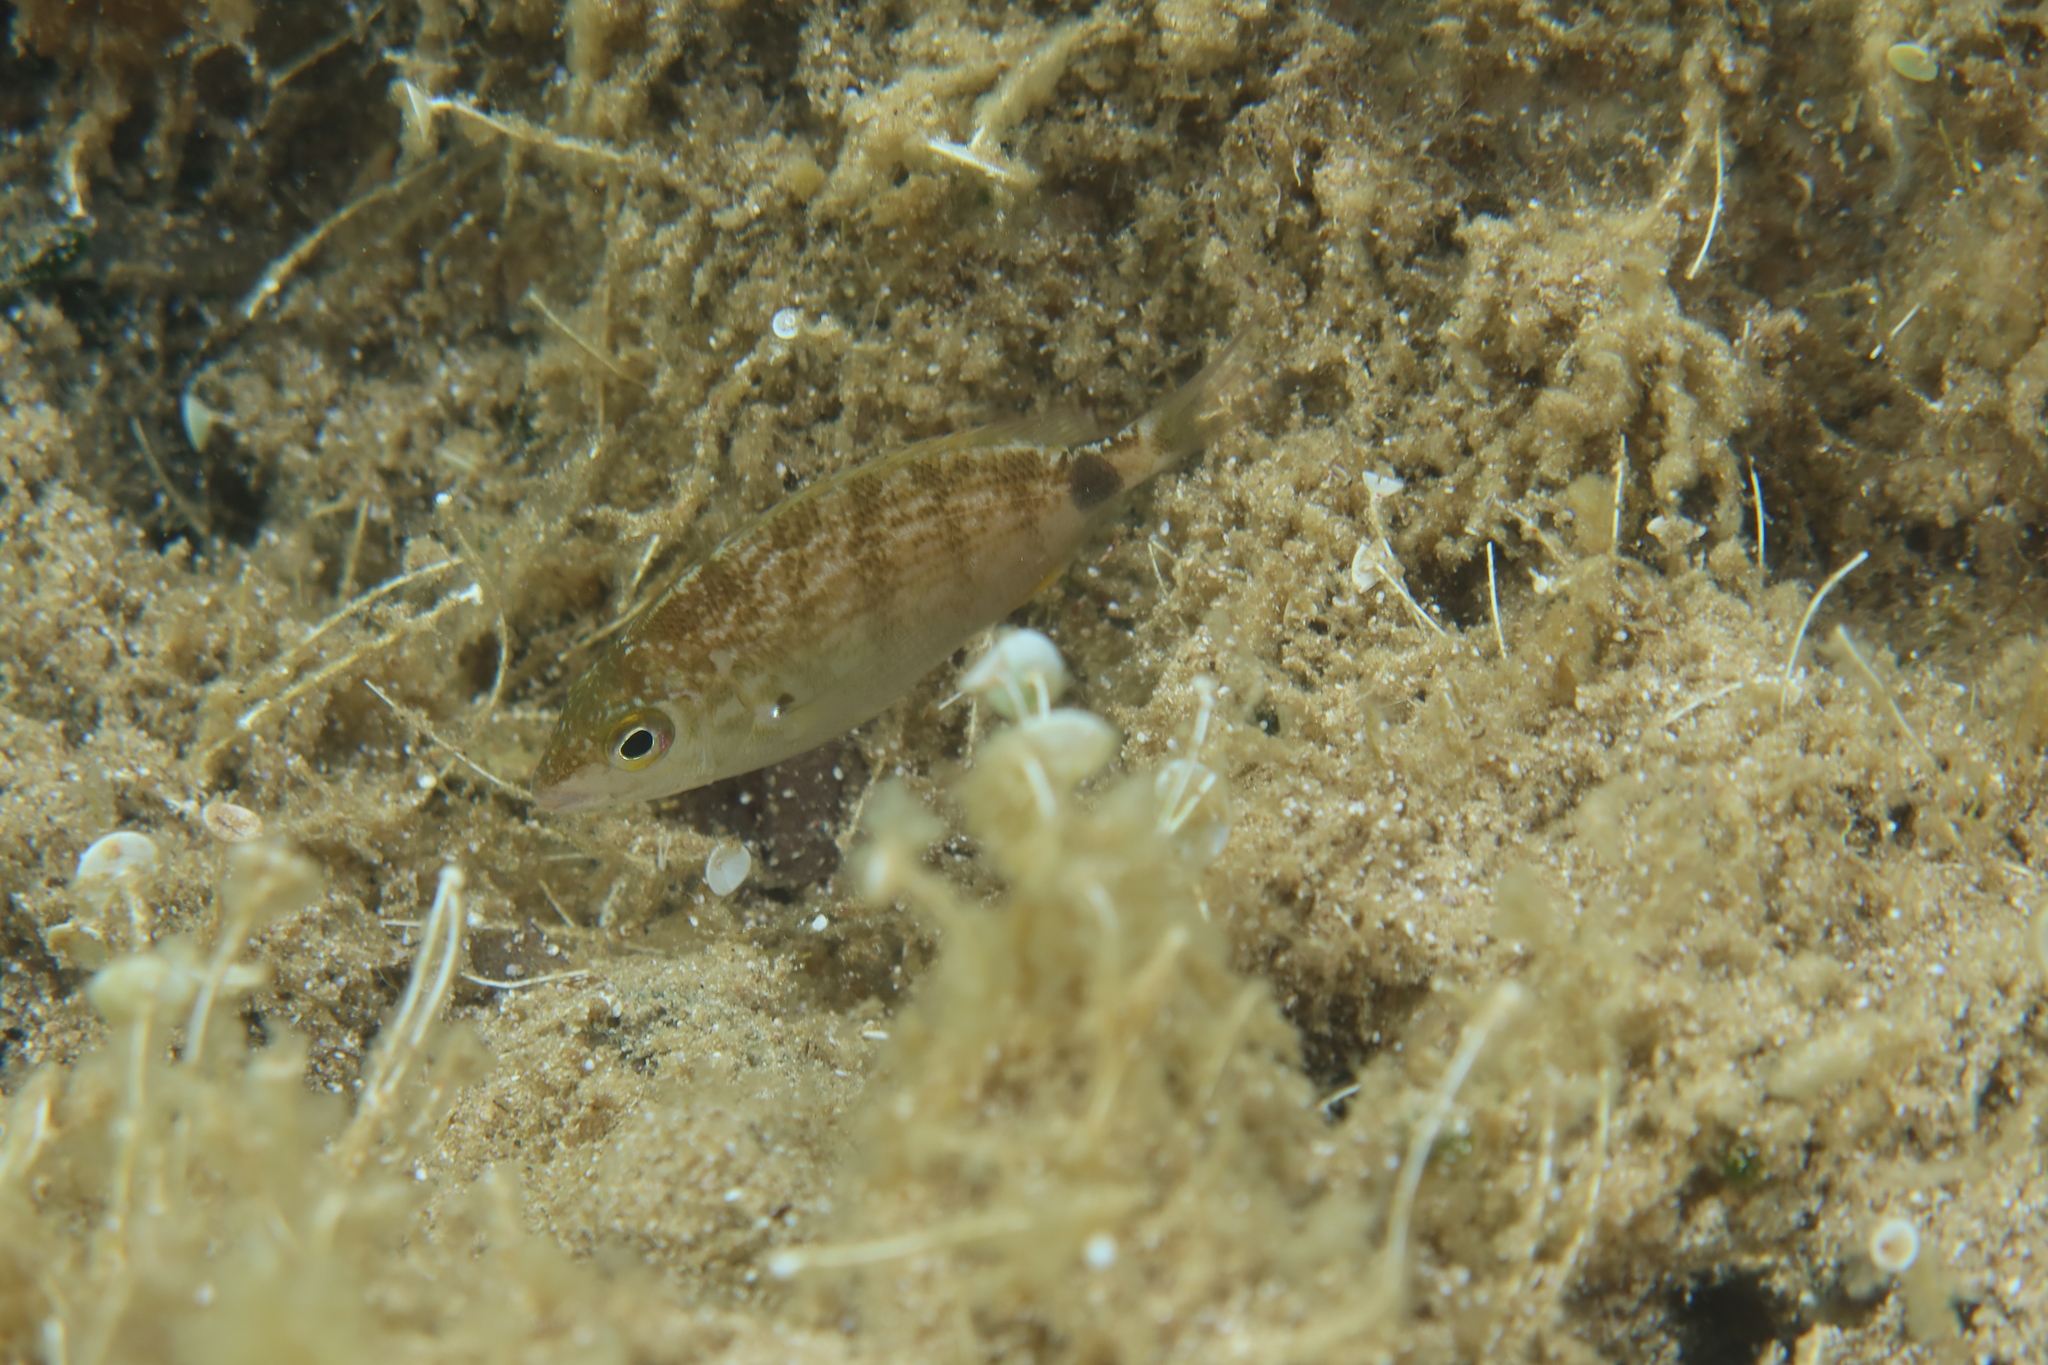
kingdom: Animalia
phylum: Chordata
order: Perciformes
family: Sparidae
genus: Diplodus
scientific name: Diplodus annularis
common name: Annular seabream
